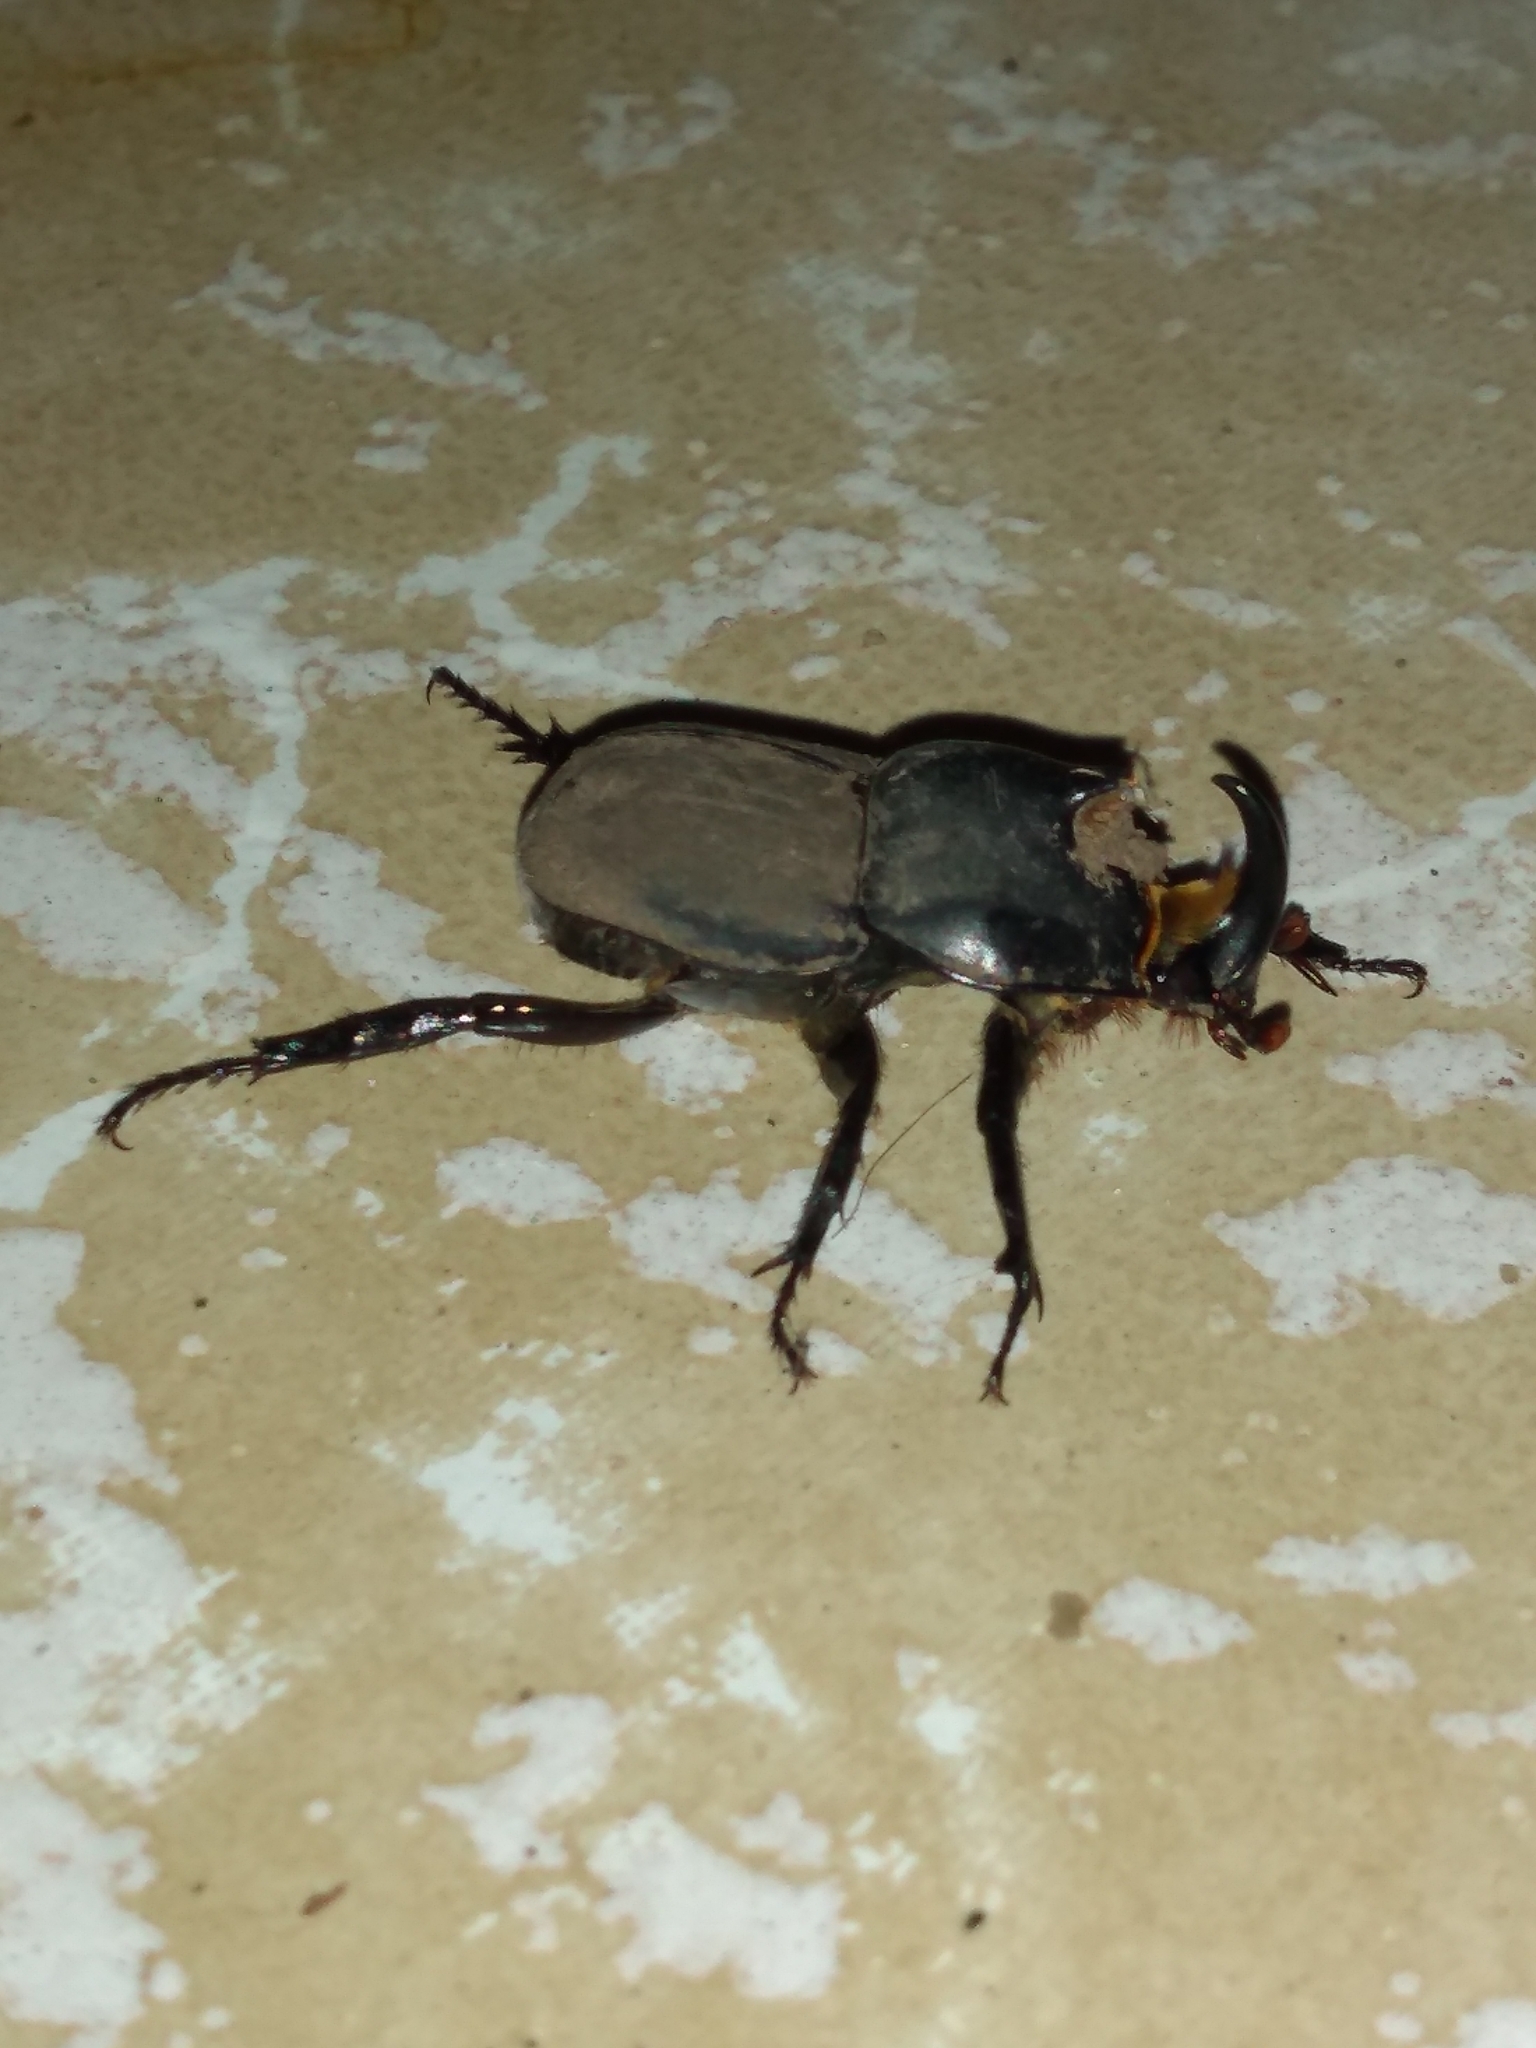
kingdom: Animalia
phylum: Arthropoda
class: Insecta
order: Coleoptera
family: Scarabaeidae
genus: Diloboderus
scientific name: Diloboderus abderus
